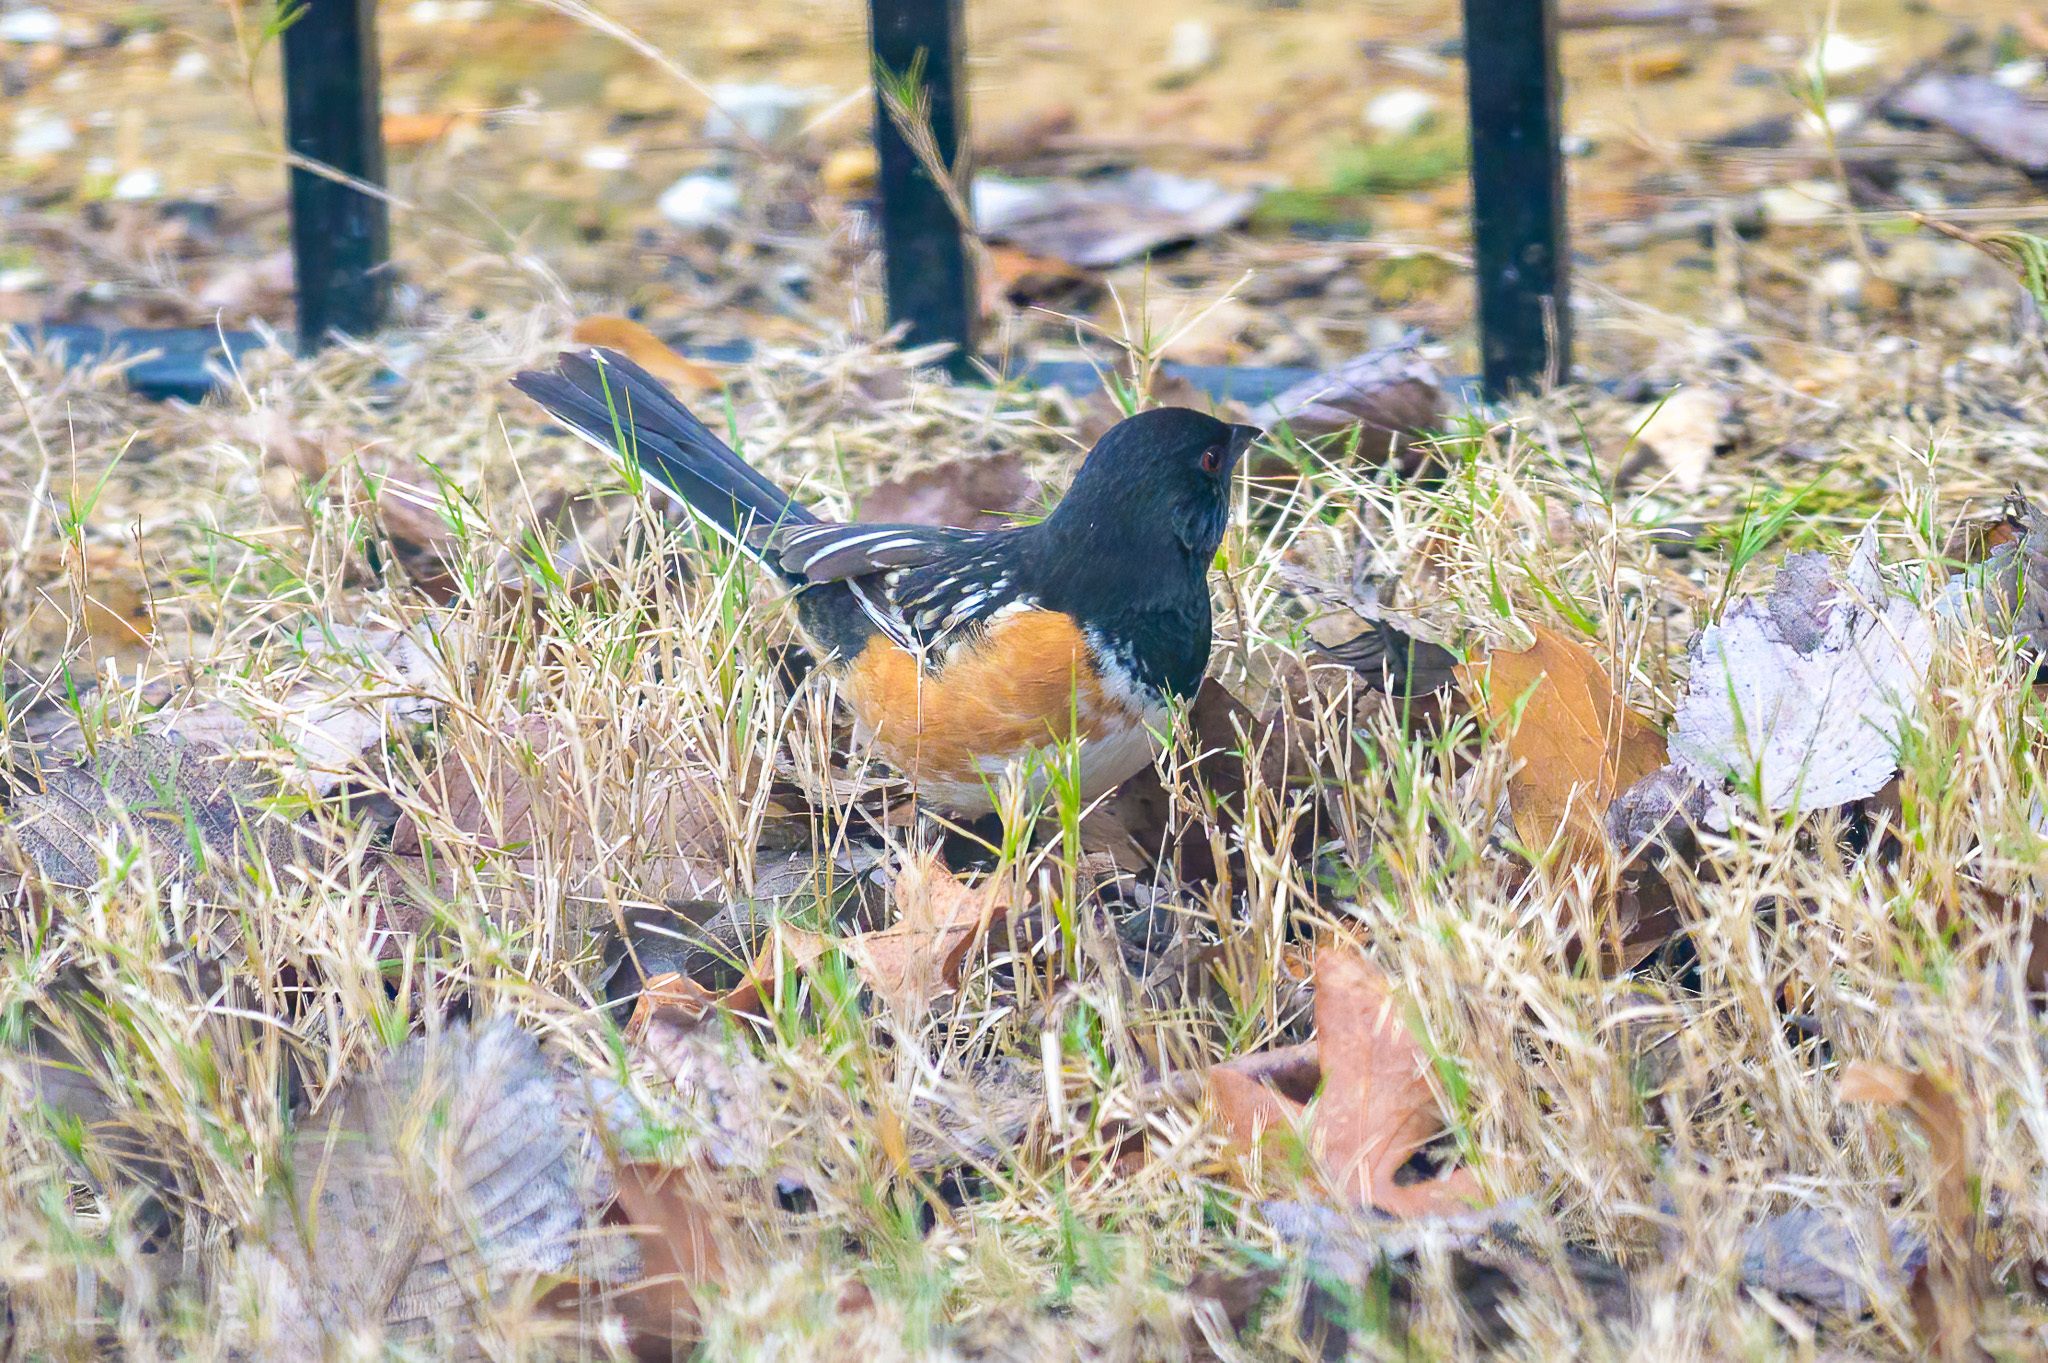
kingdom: Animalia
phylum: Chordata
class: Aves
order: Passeriformes
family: Passerellidae
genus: Pipilo
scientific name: Pipilo maculatus
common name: Spotted towhee
